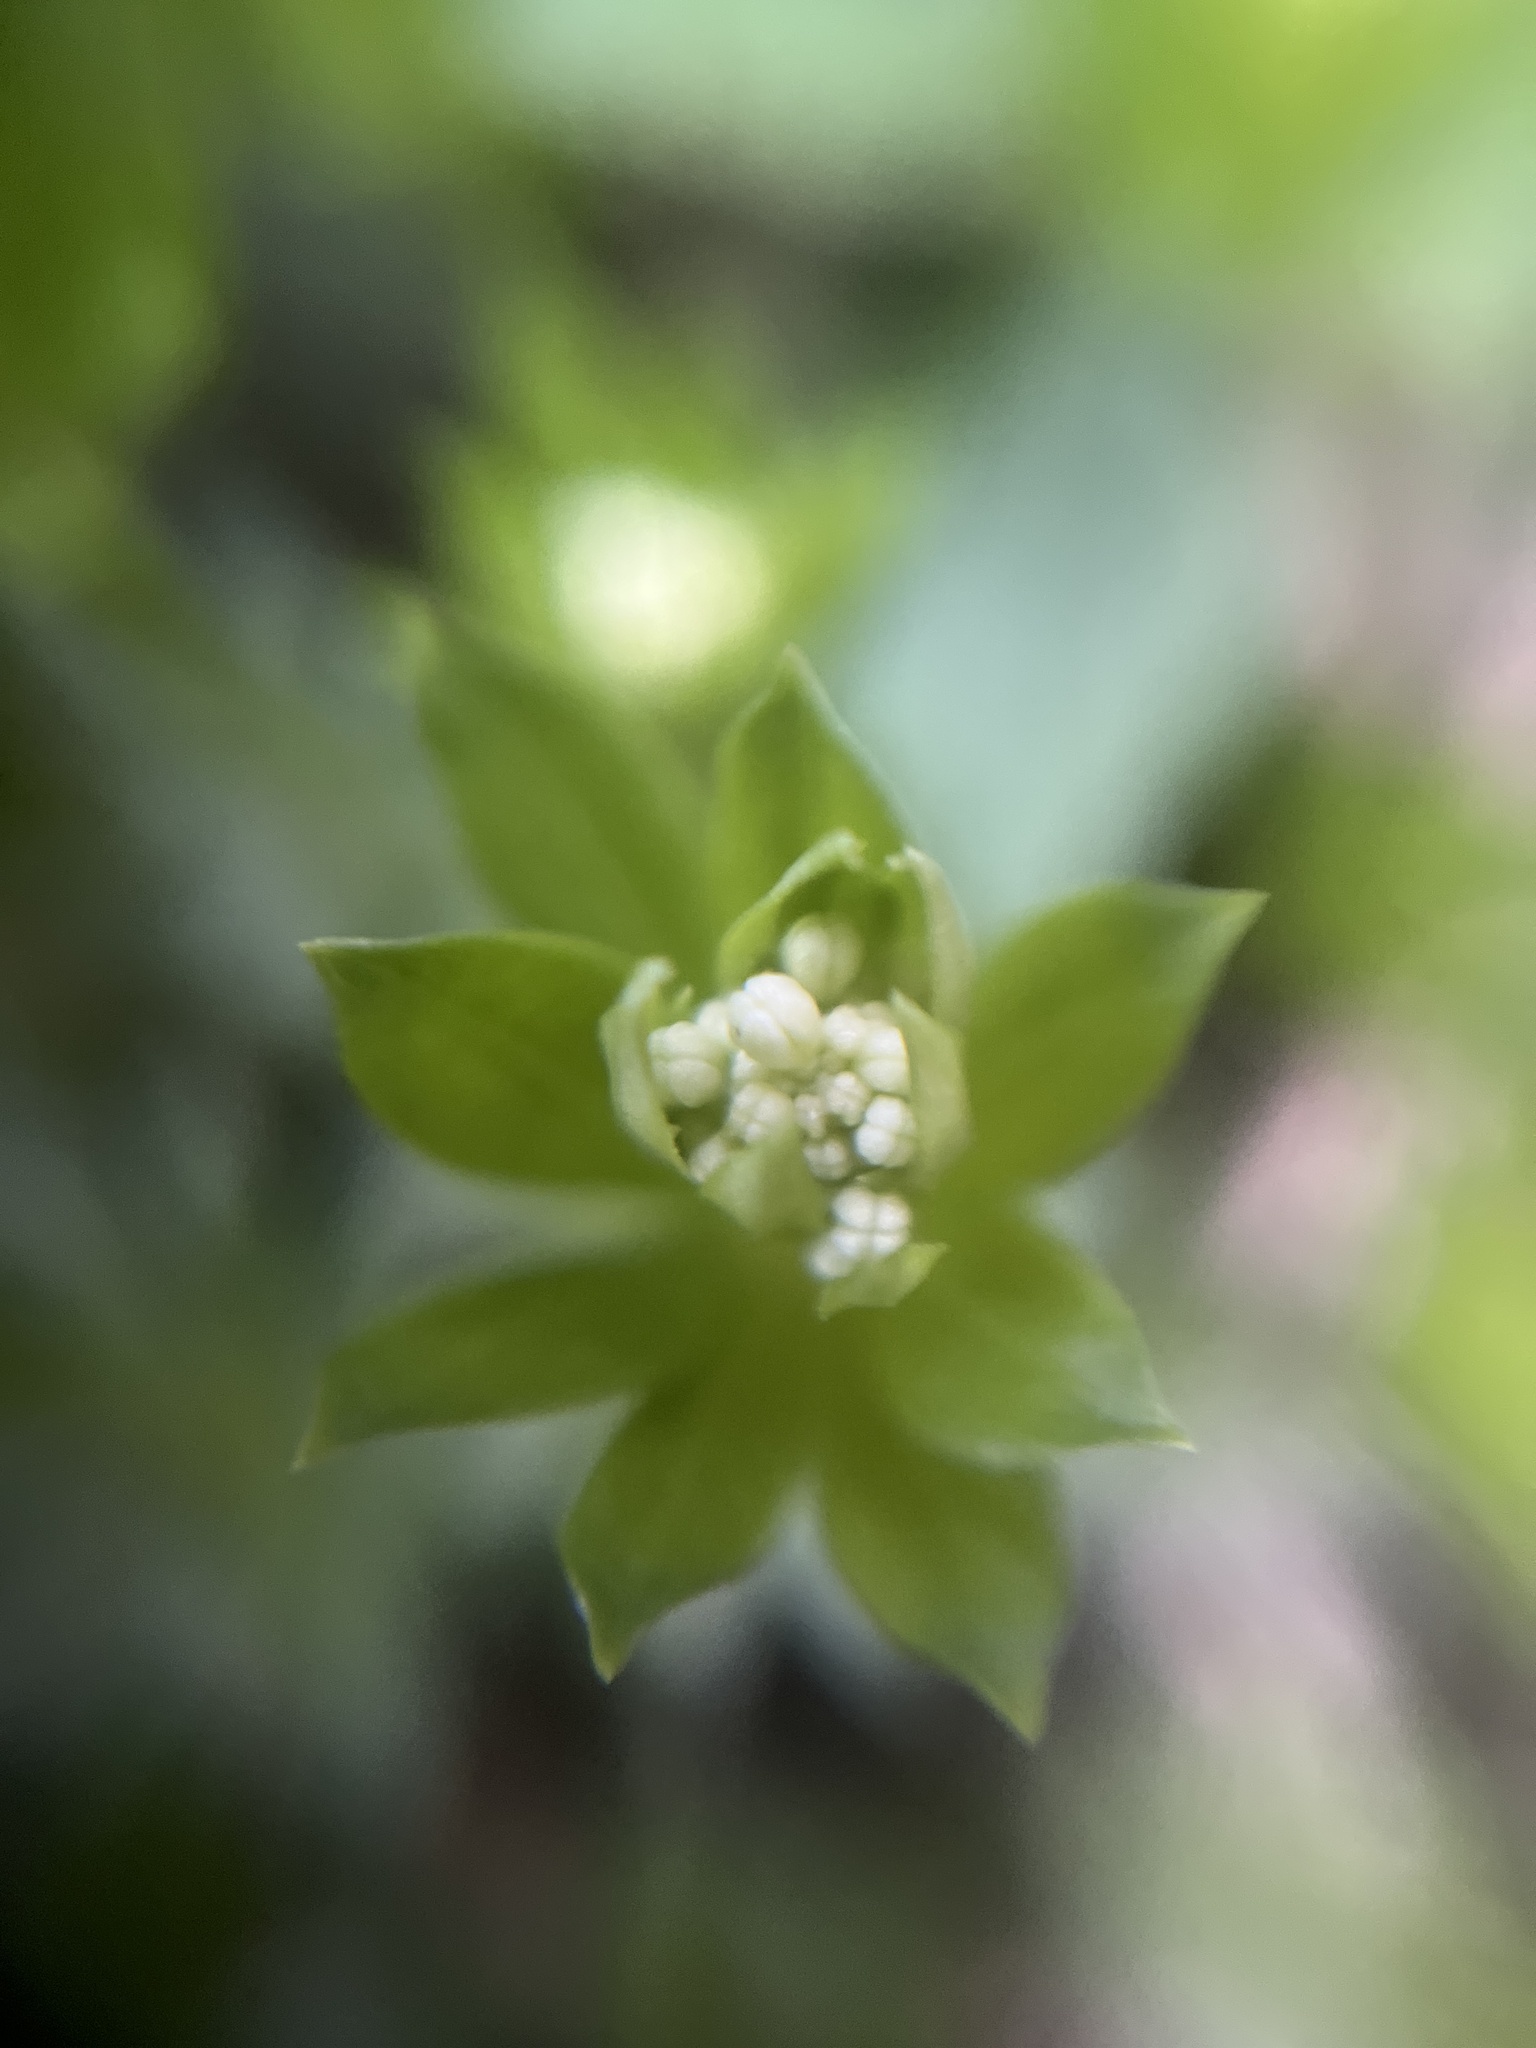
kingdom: Plantae
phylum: Tracheophyta
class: Magnoliopsida
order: Gentianales
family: Rubiaceae
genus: Galium
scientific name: Galium odoratum
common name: Sweet woodruff
